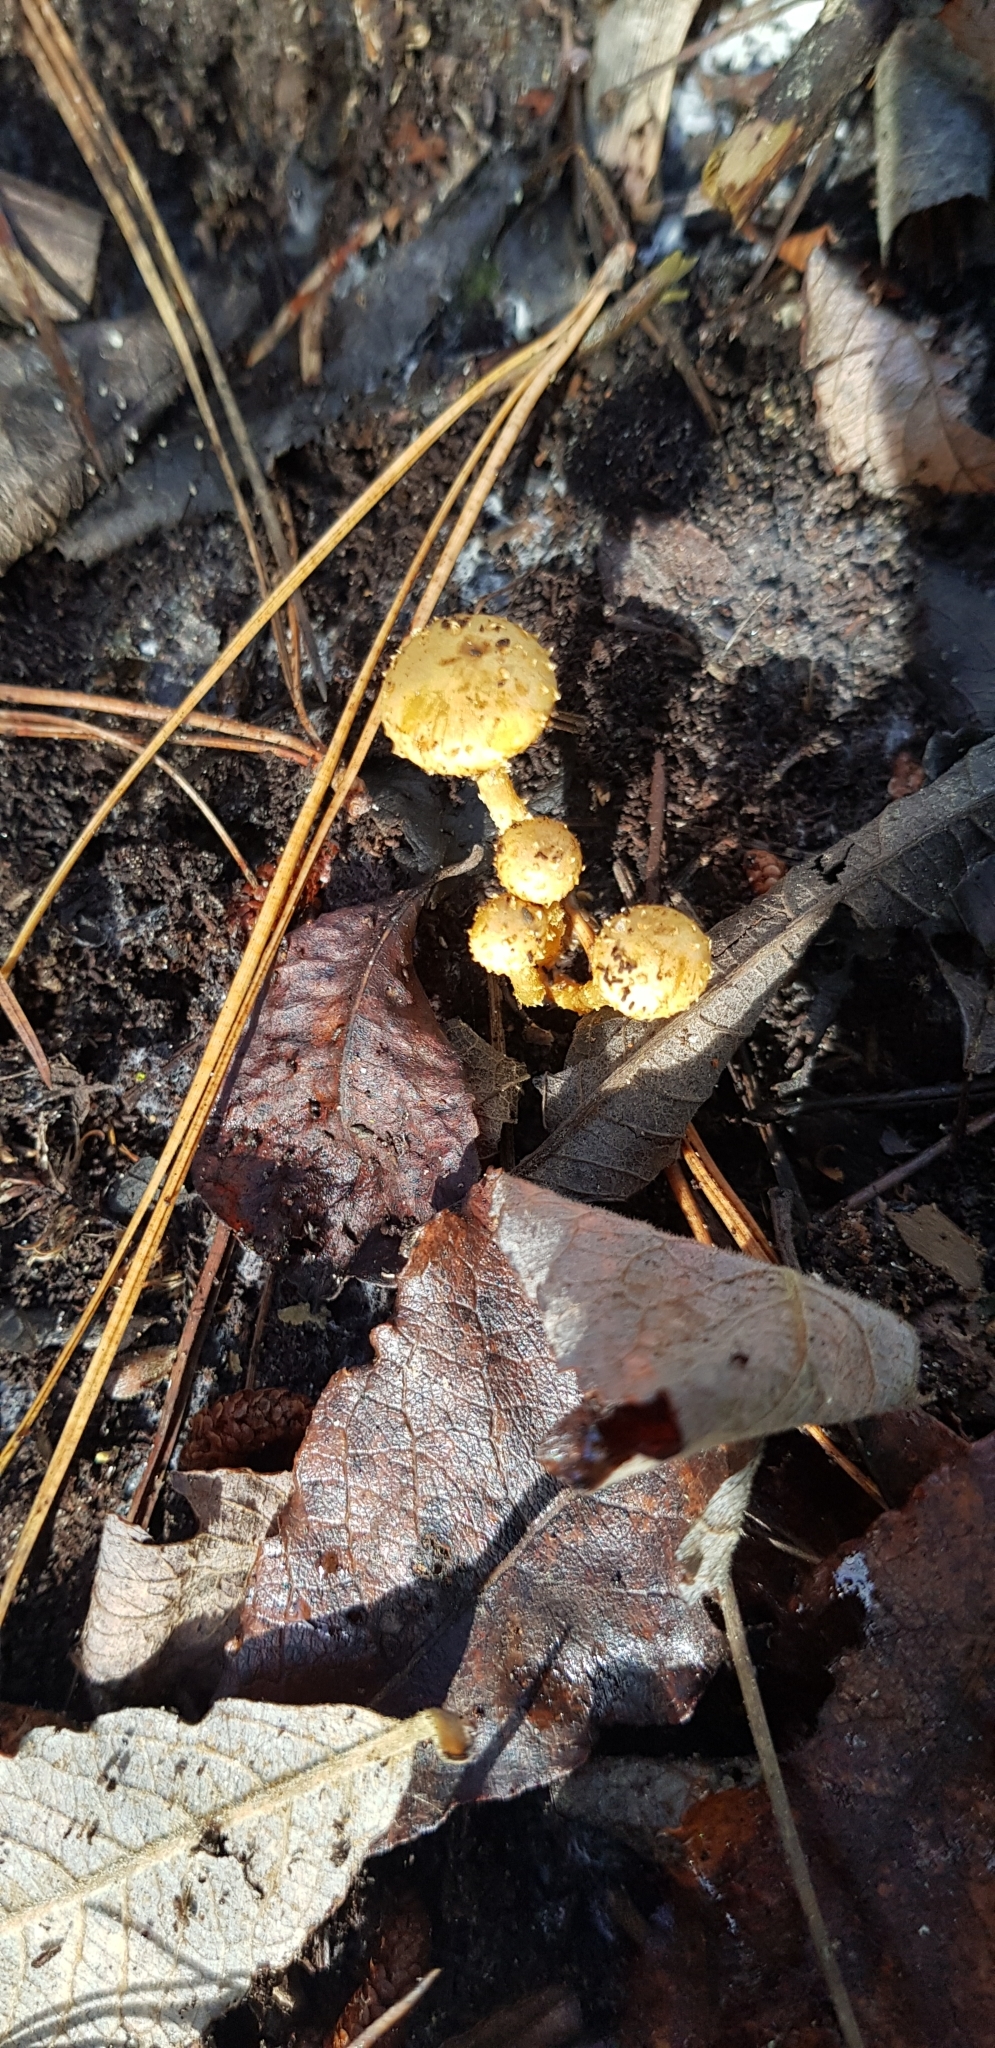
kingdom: Fungi
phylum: Basidiomycota
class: Agaricomycetes
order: Agaricales
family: Strophariaceae
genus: Pholiota
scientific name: Pholiota subflammans
